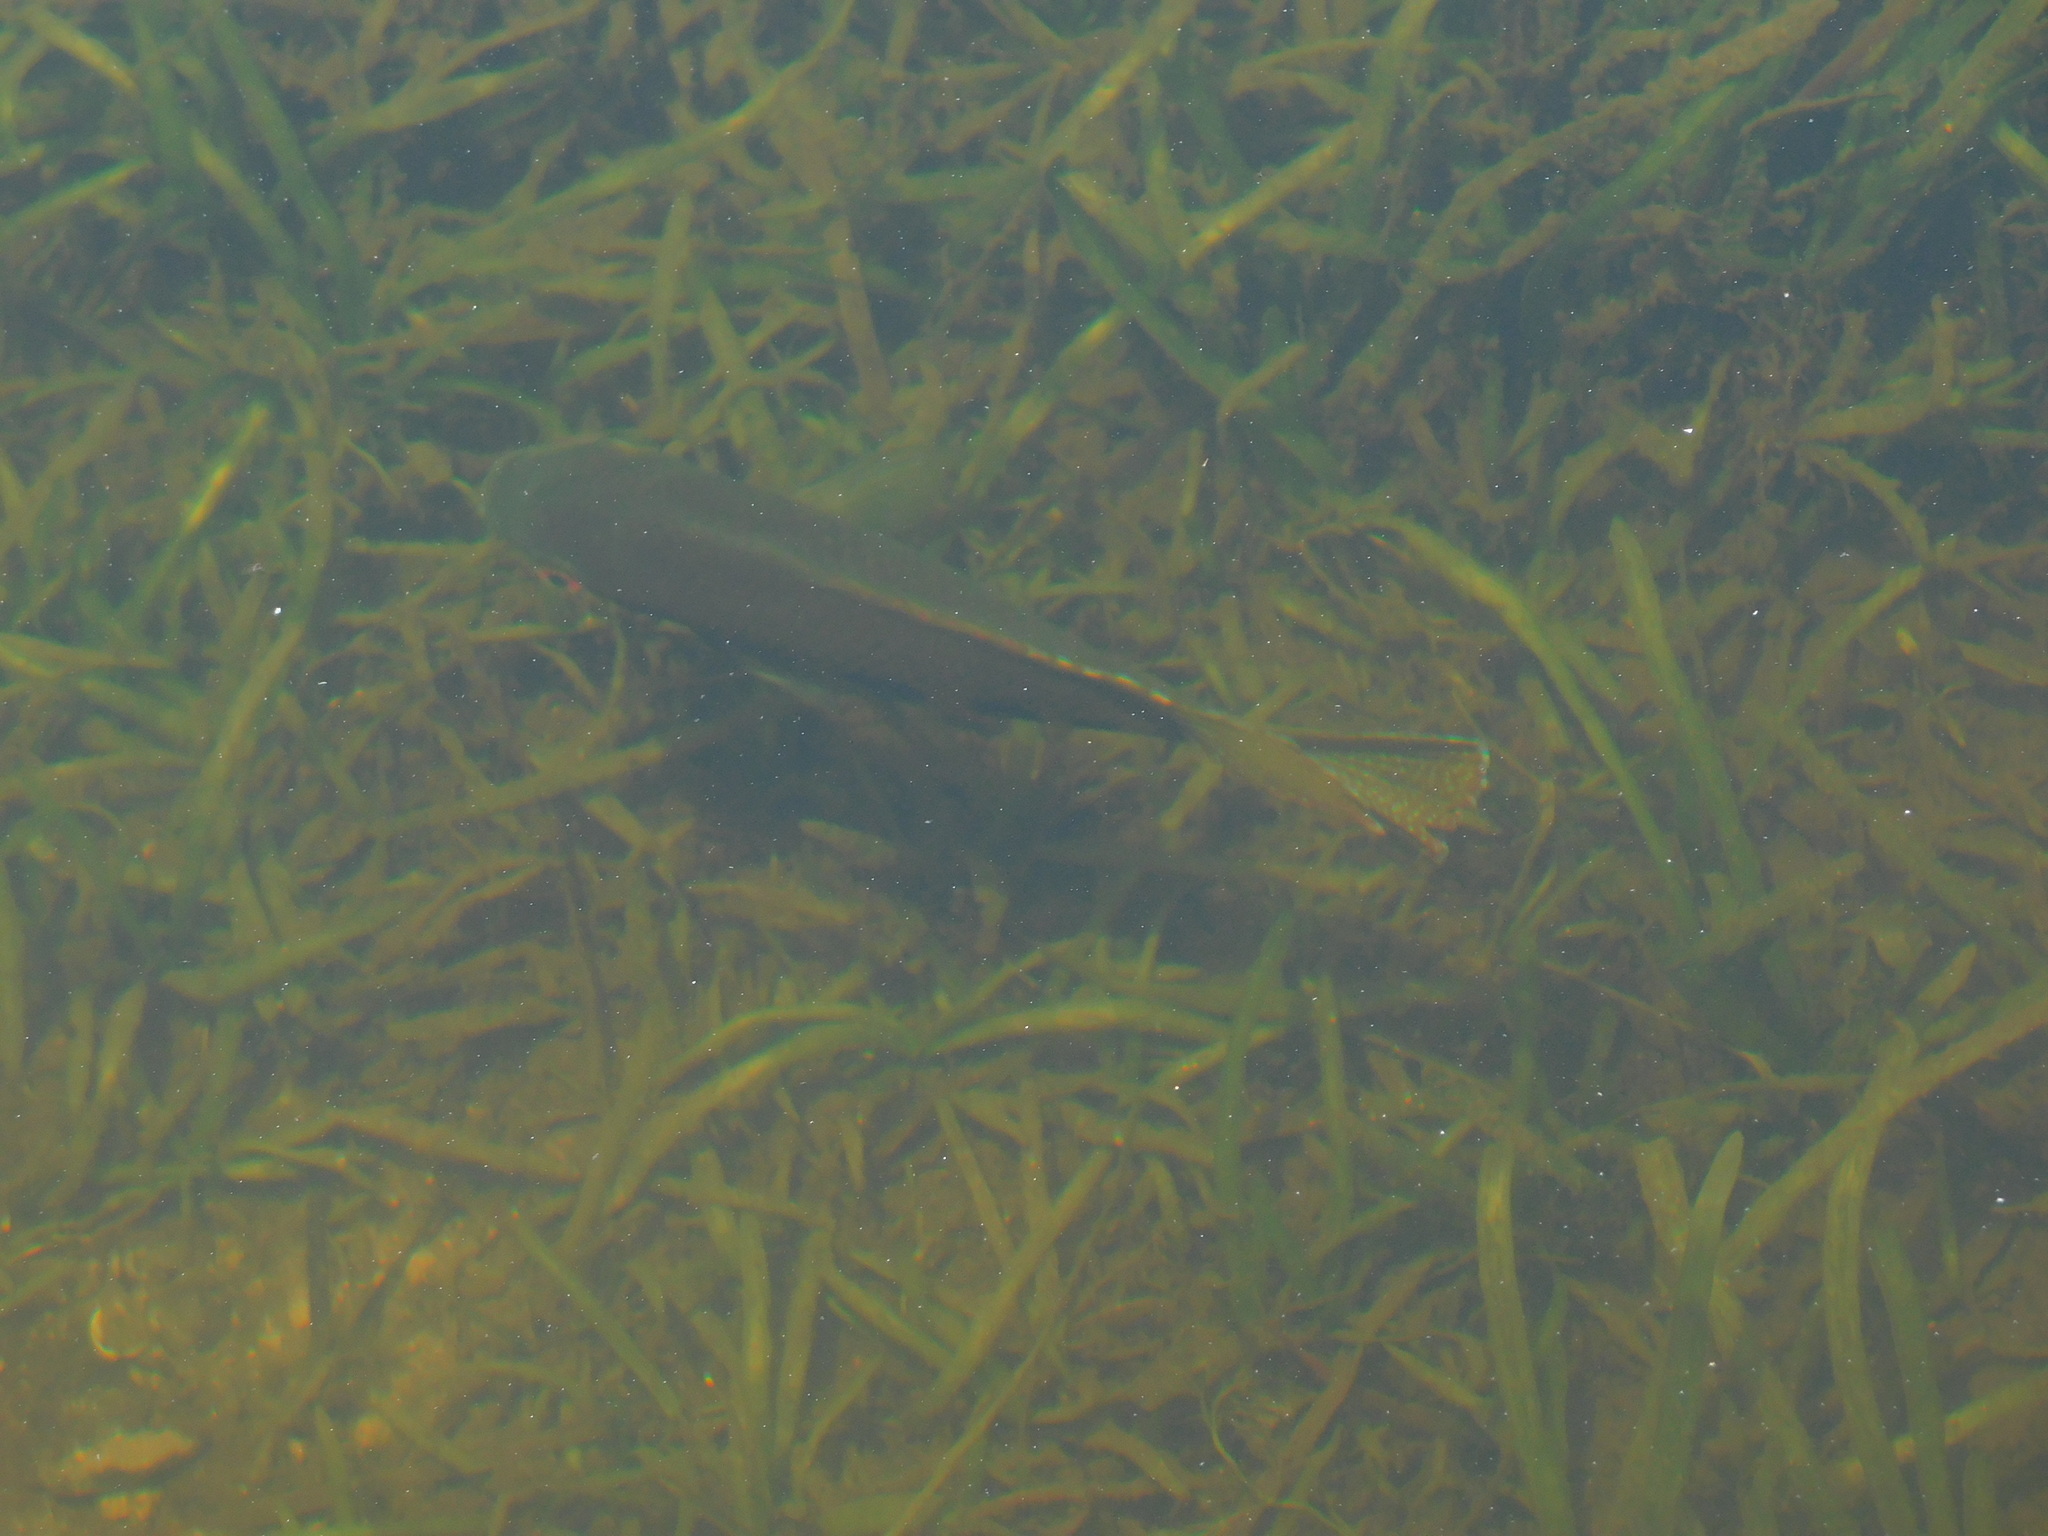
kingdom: Animalia
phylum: Chordata
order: Perciformes
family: Cichlidae
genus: Pelmatolapia
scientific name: Pelmatolapia mariae
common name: Spotted tilapia
